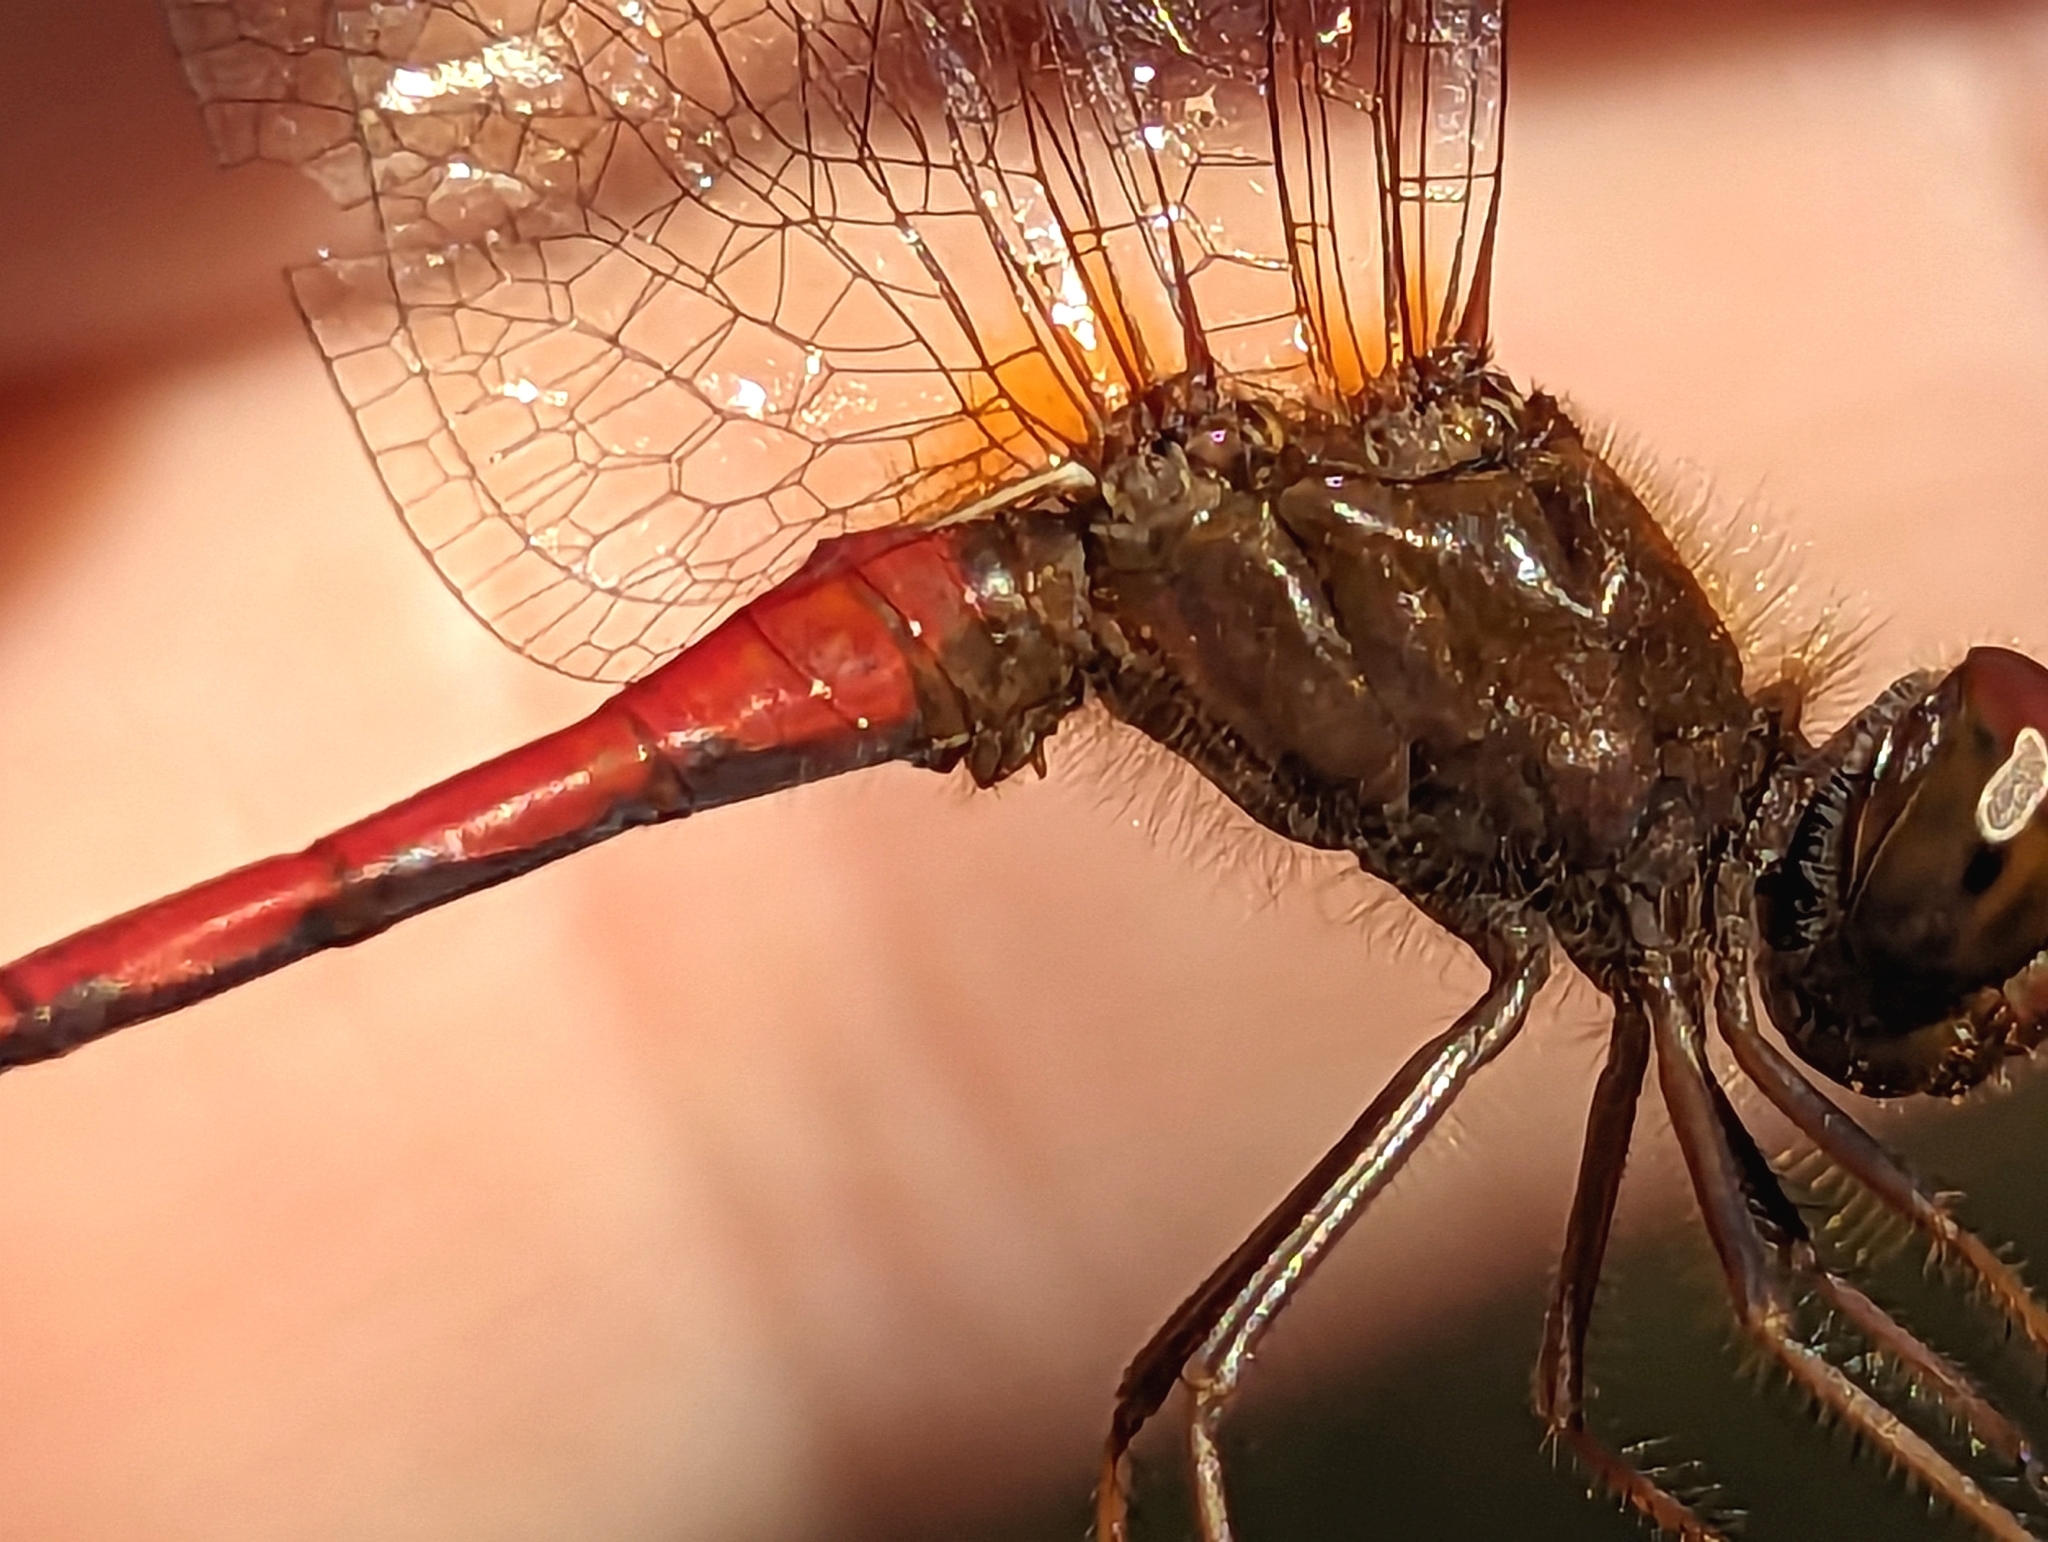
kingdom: Animalia
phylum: Arthropoda
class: Insecta
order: Odonata
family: Libellulidae
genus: Sympetrum
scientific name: Sympetrum vicinum
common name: Autumn meadowhawk
